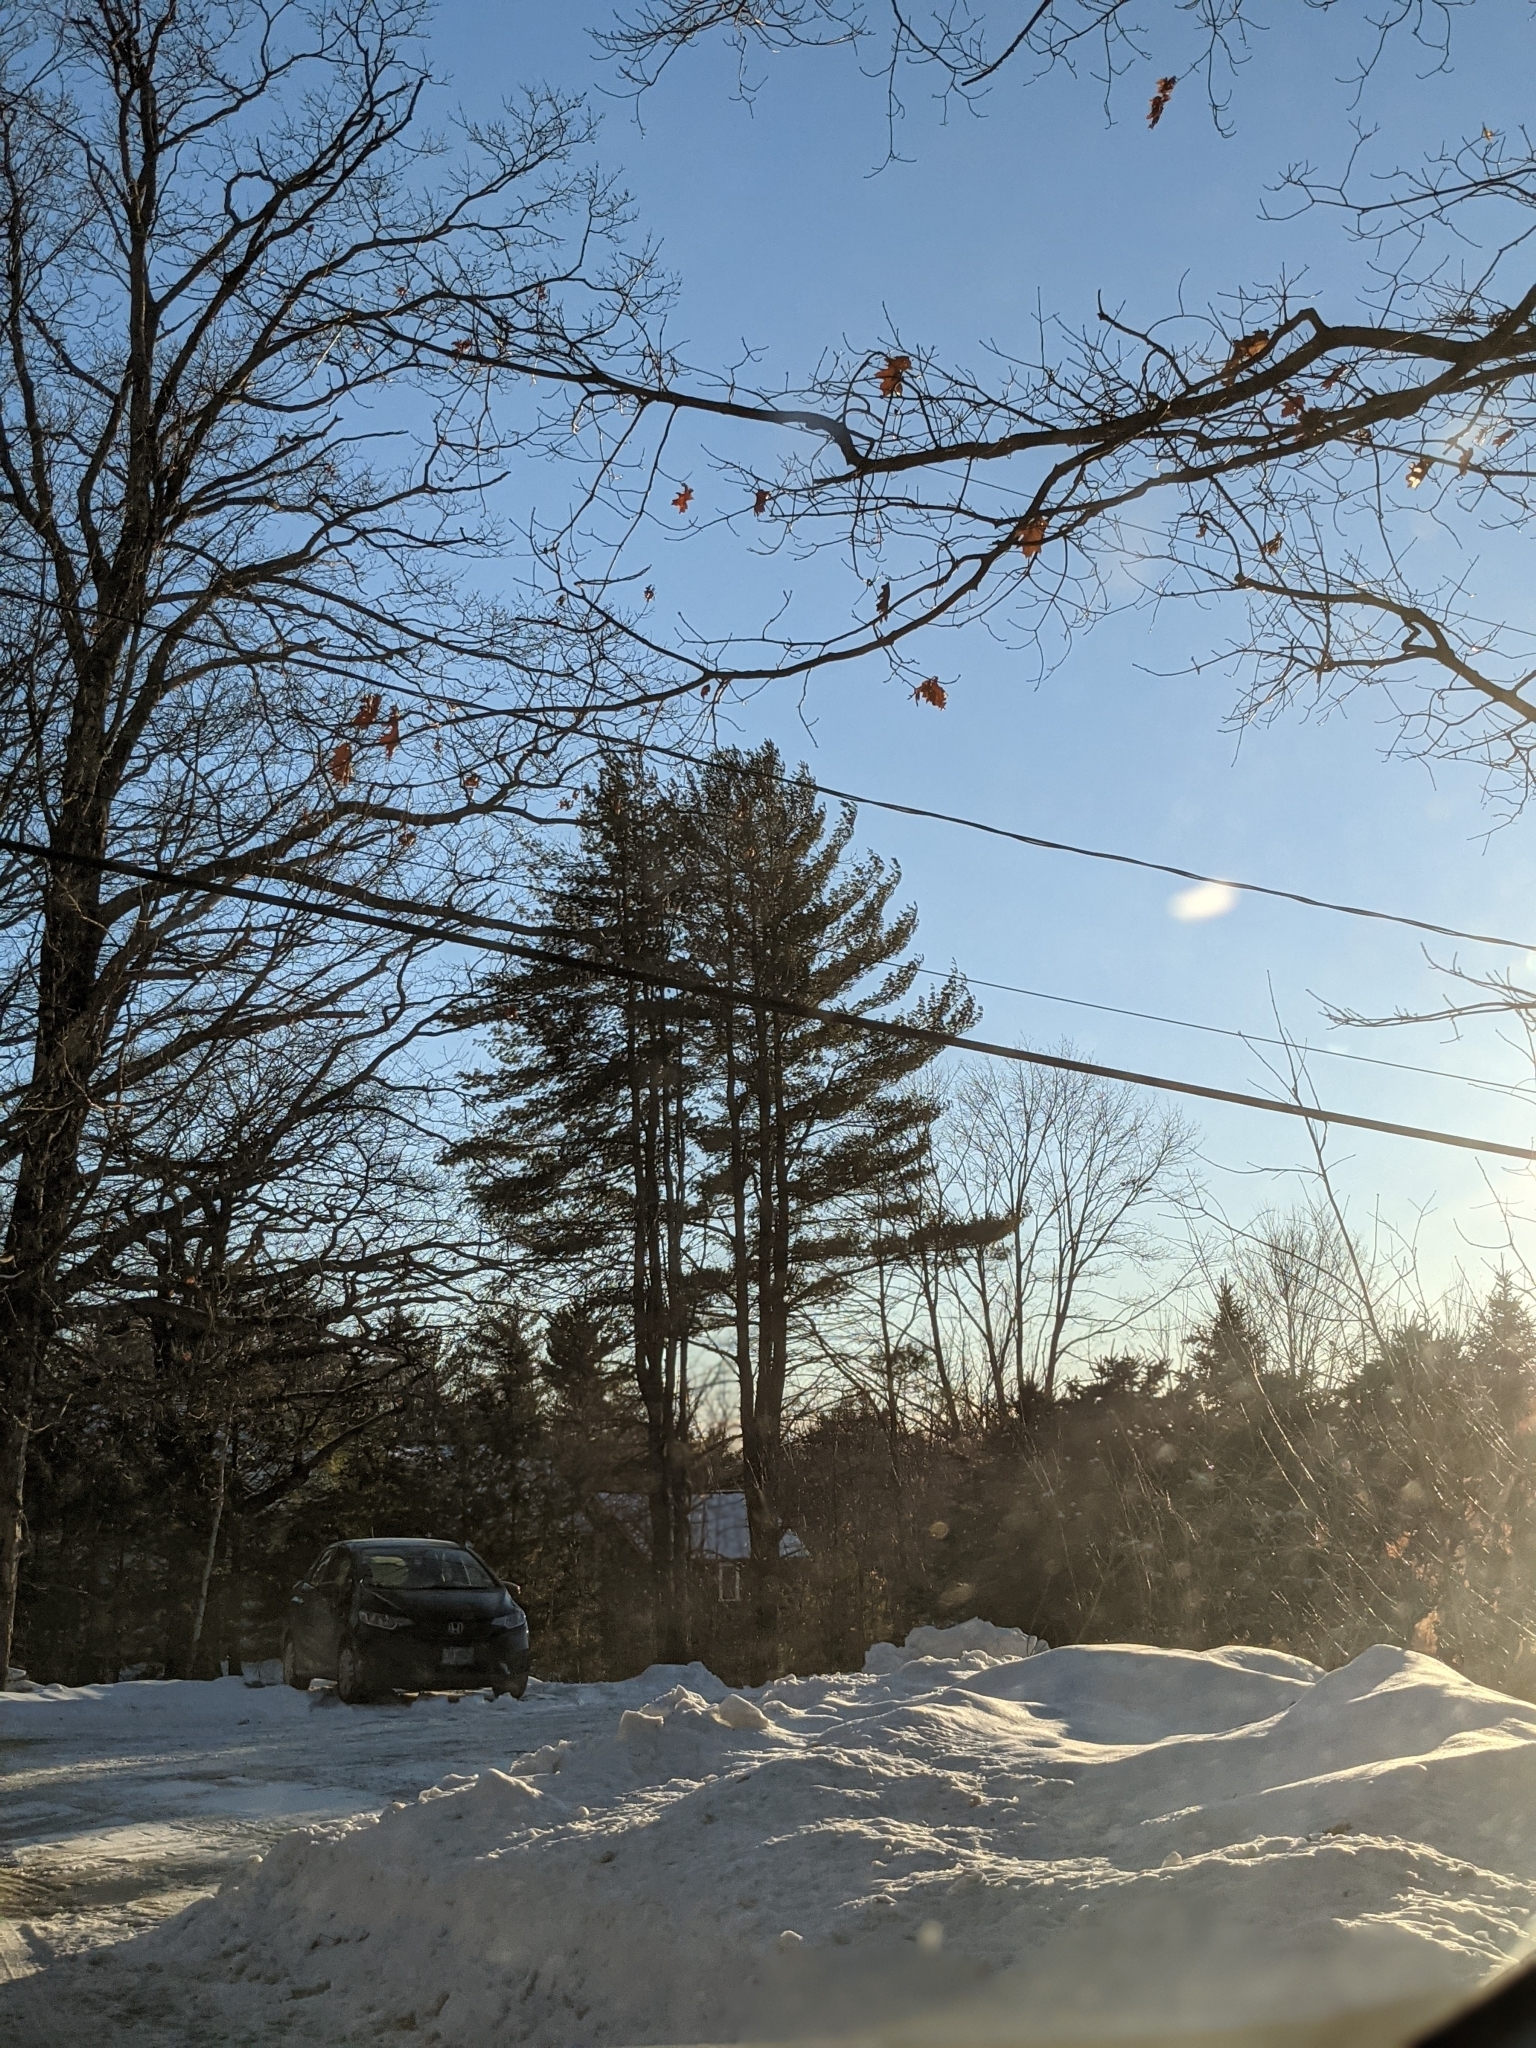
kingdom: Plantae
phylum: Tracheophyta
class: Pinopsida
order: Pinales
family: Pinaceae
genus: Pinus
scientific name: Pinus strobus
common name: Weymouth pine
